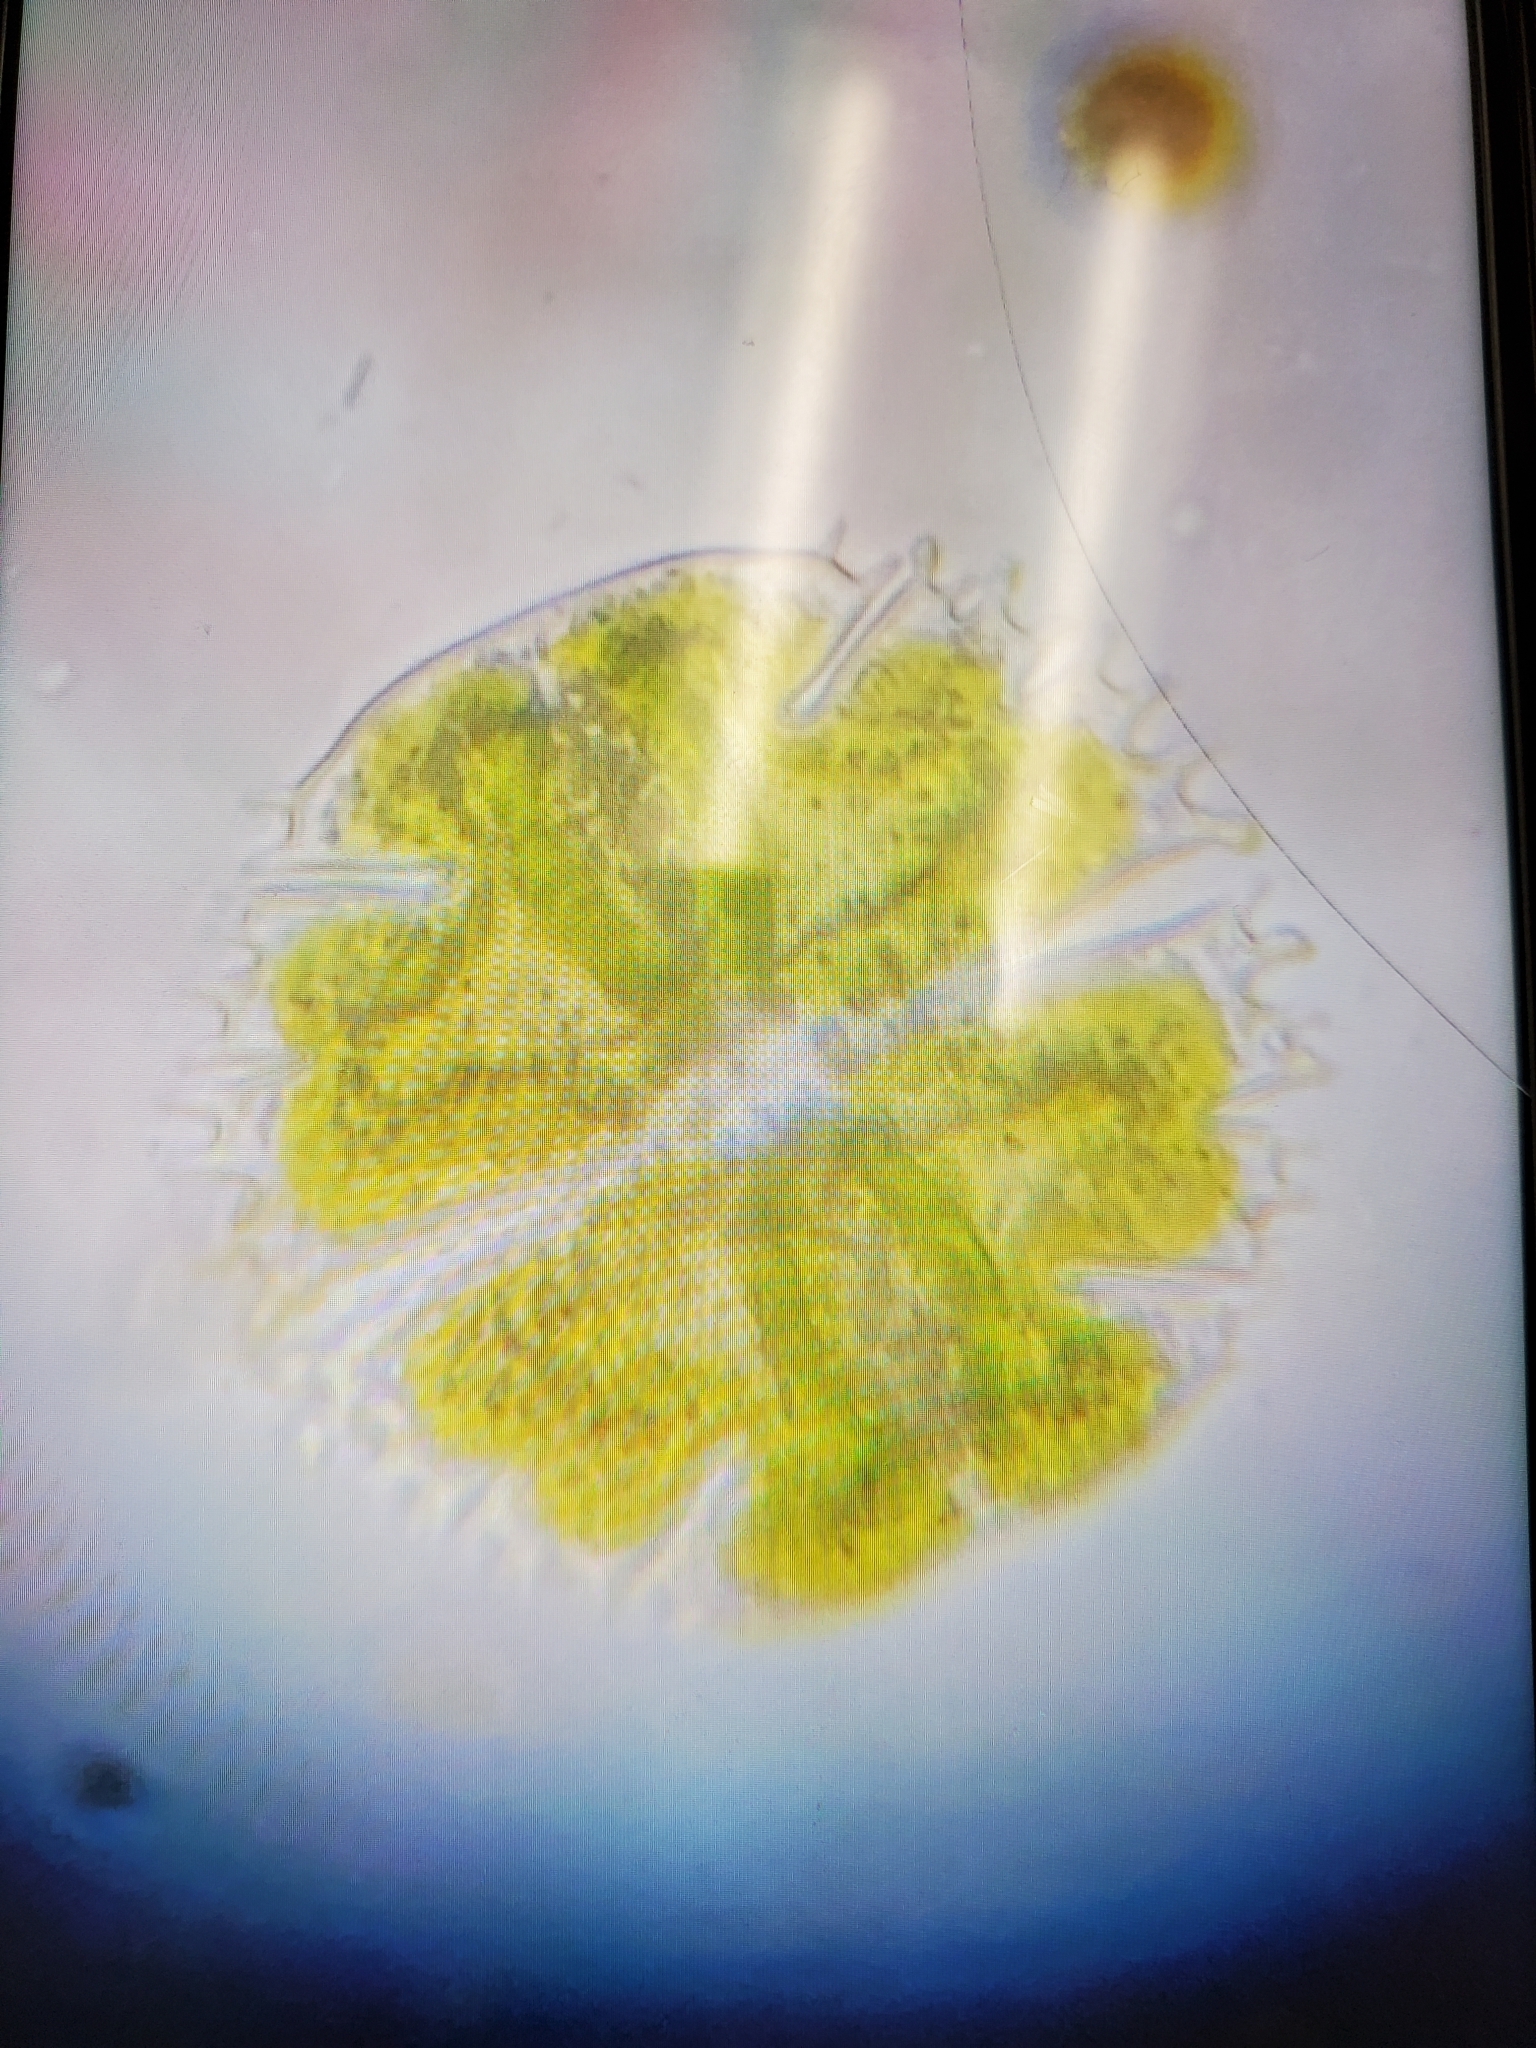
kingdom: Plantae
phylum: Charophyta
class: Conjugatophyceae
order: Desmidiales
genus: Micrasterias
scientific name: Micrasterias truncata
